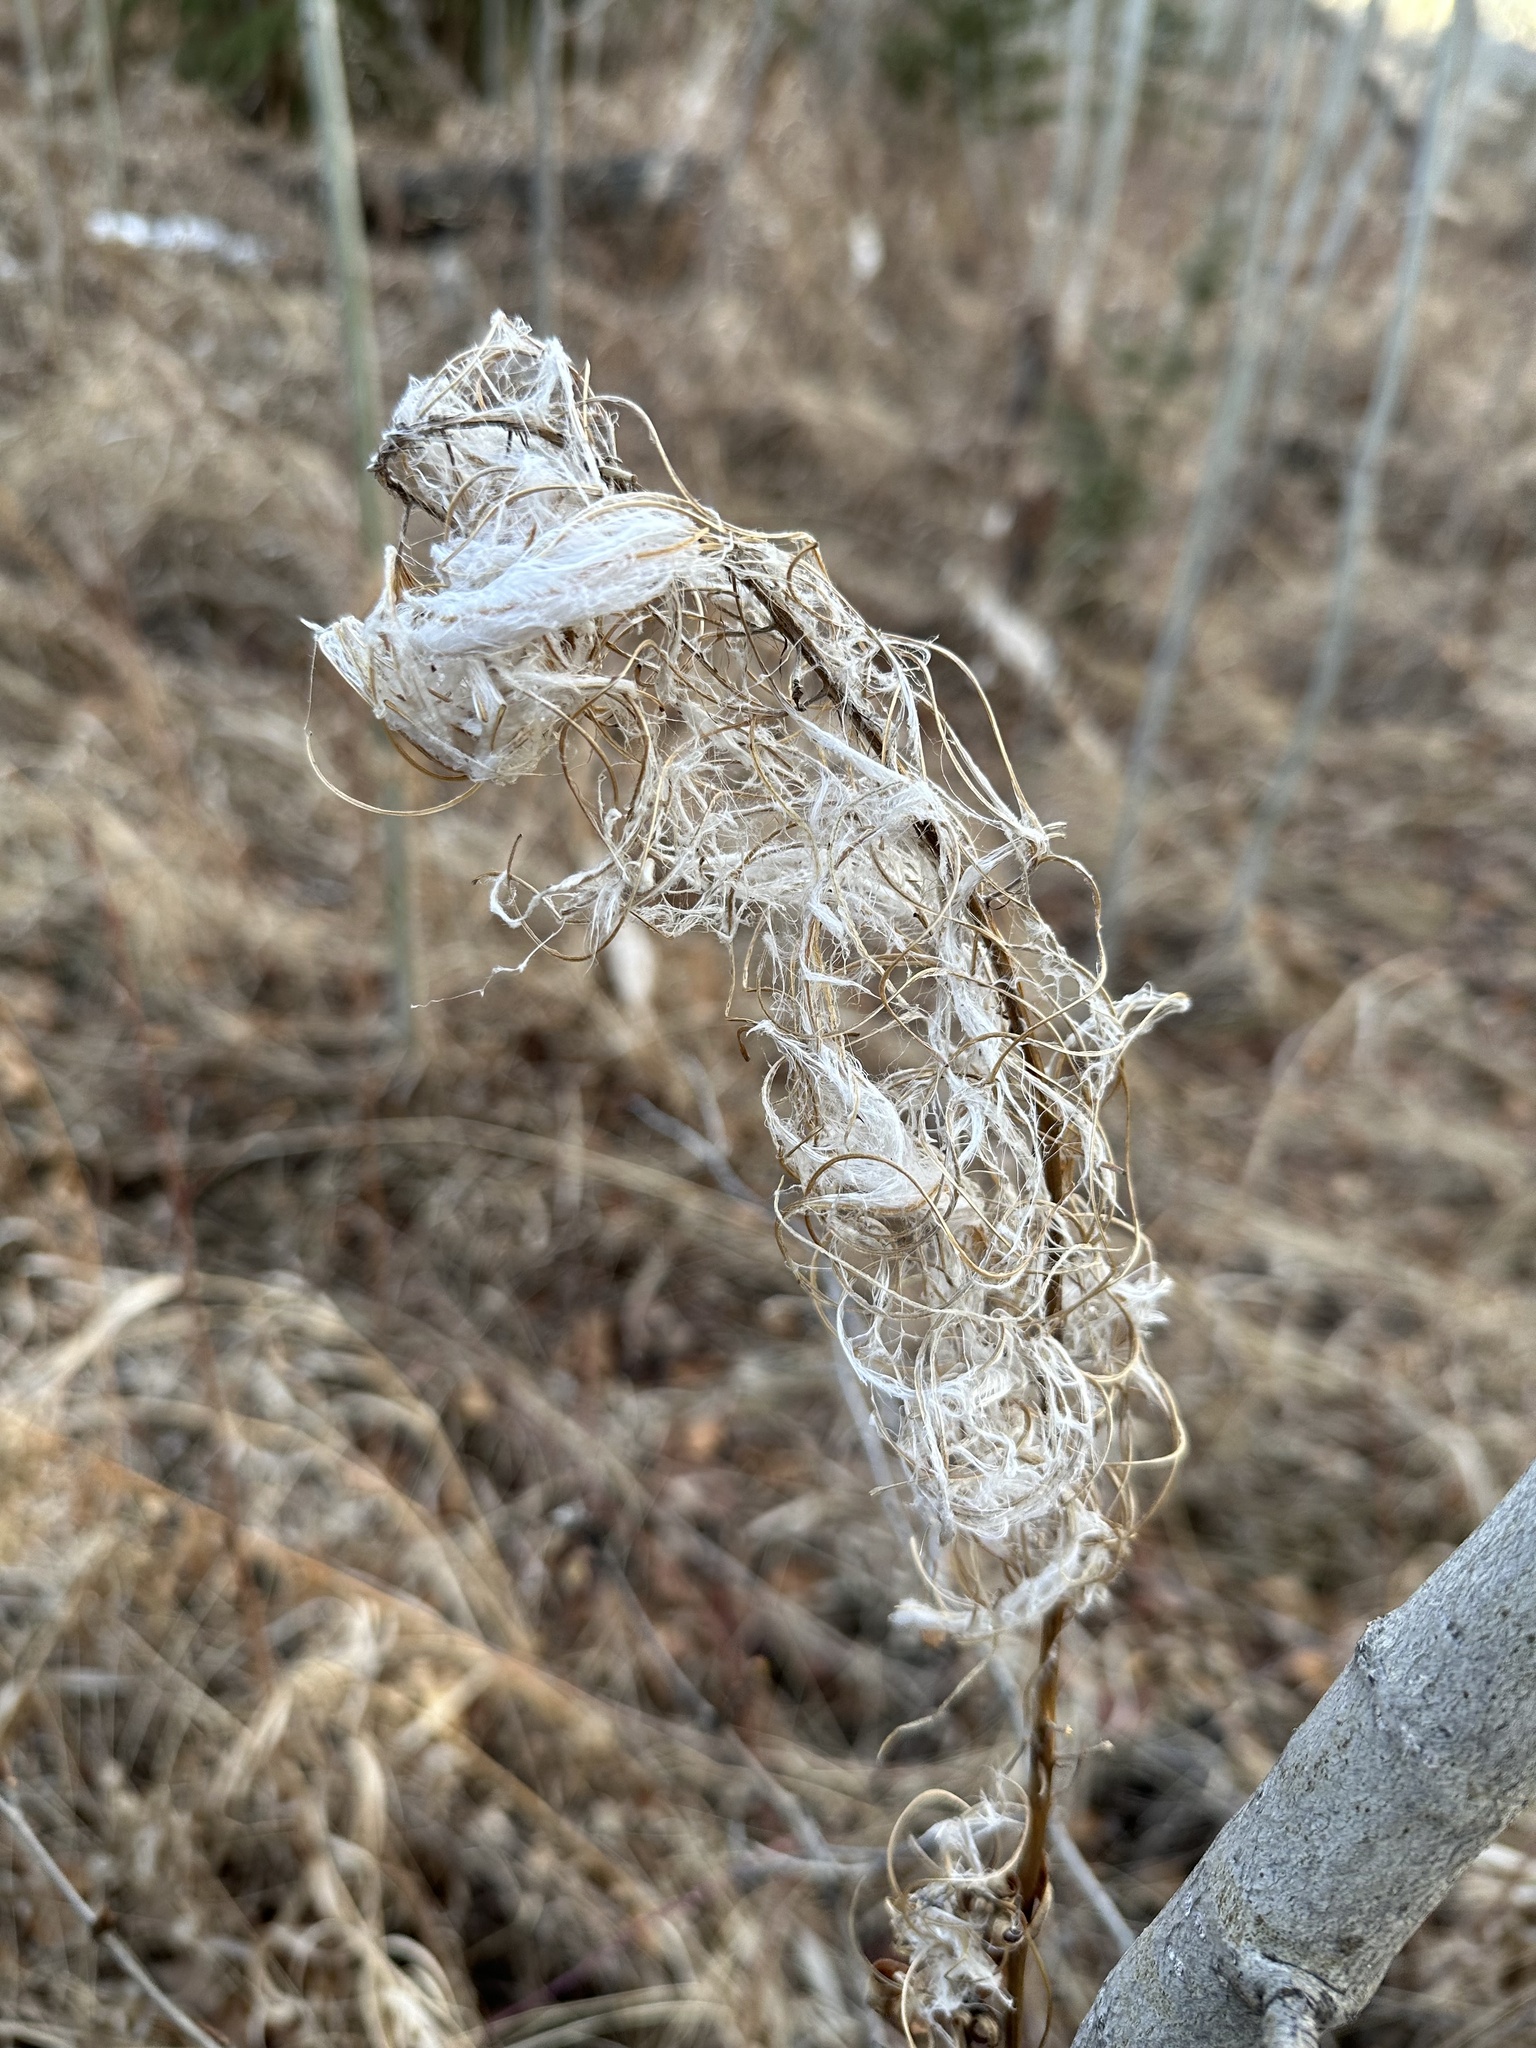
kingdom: Plantae
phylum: Tracheophyta
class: Magnoliopsida
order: Myrtales
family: Onagraceae
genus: Chamaenerion
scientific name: Chamaenerion angustifolium
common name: Fireweed
